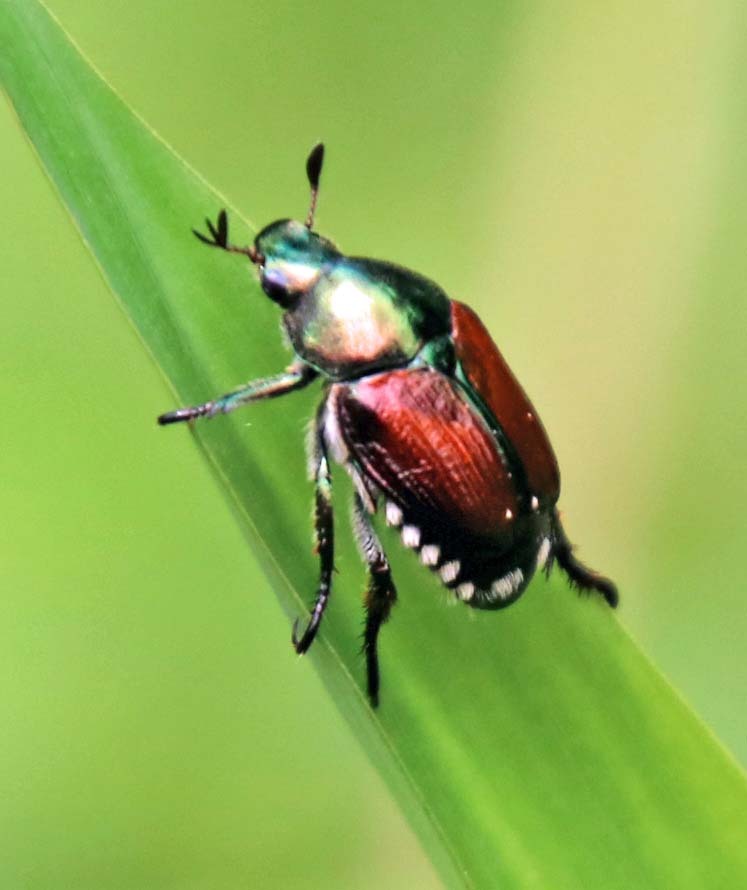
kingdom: Animalia
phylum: Arthropoda
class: Insecta
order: Coleoptera
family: Scarabaeidae
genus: Popillia
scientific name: Popillia japonica
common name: Japanese beetle
